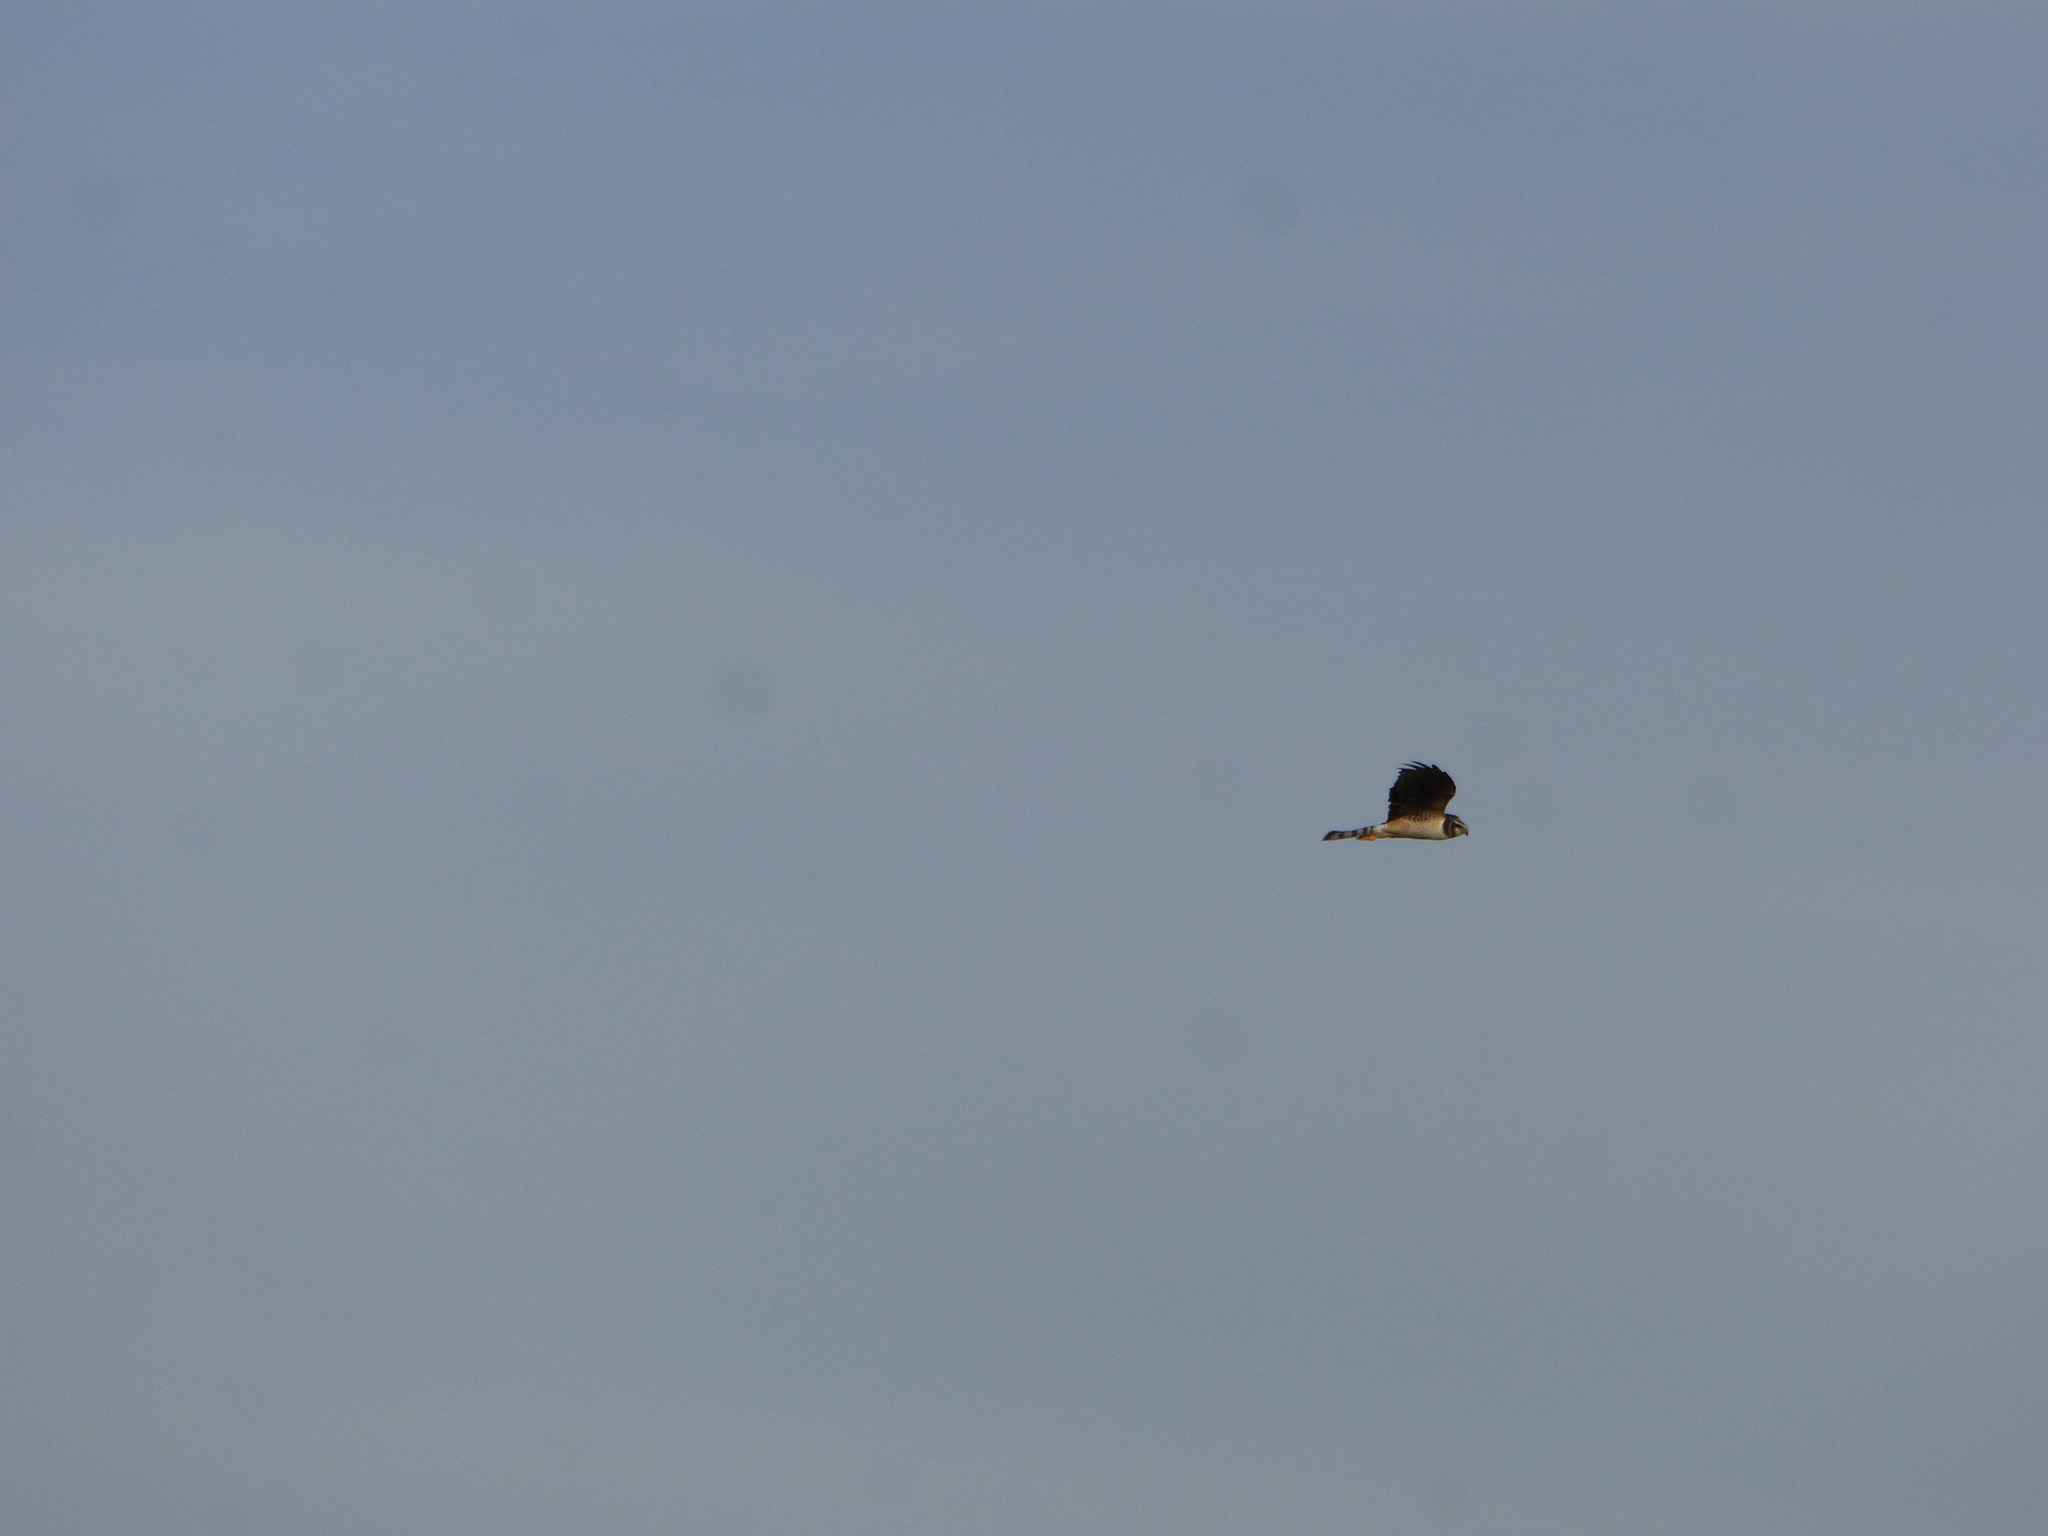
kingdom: Animalia
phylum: Chordata
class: Aves
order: Accipitriformes
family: Accipitridae
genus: Circus
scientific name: Circus buffoni
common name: Long-winged harrier
